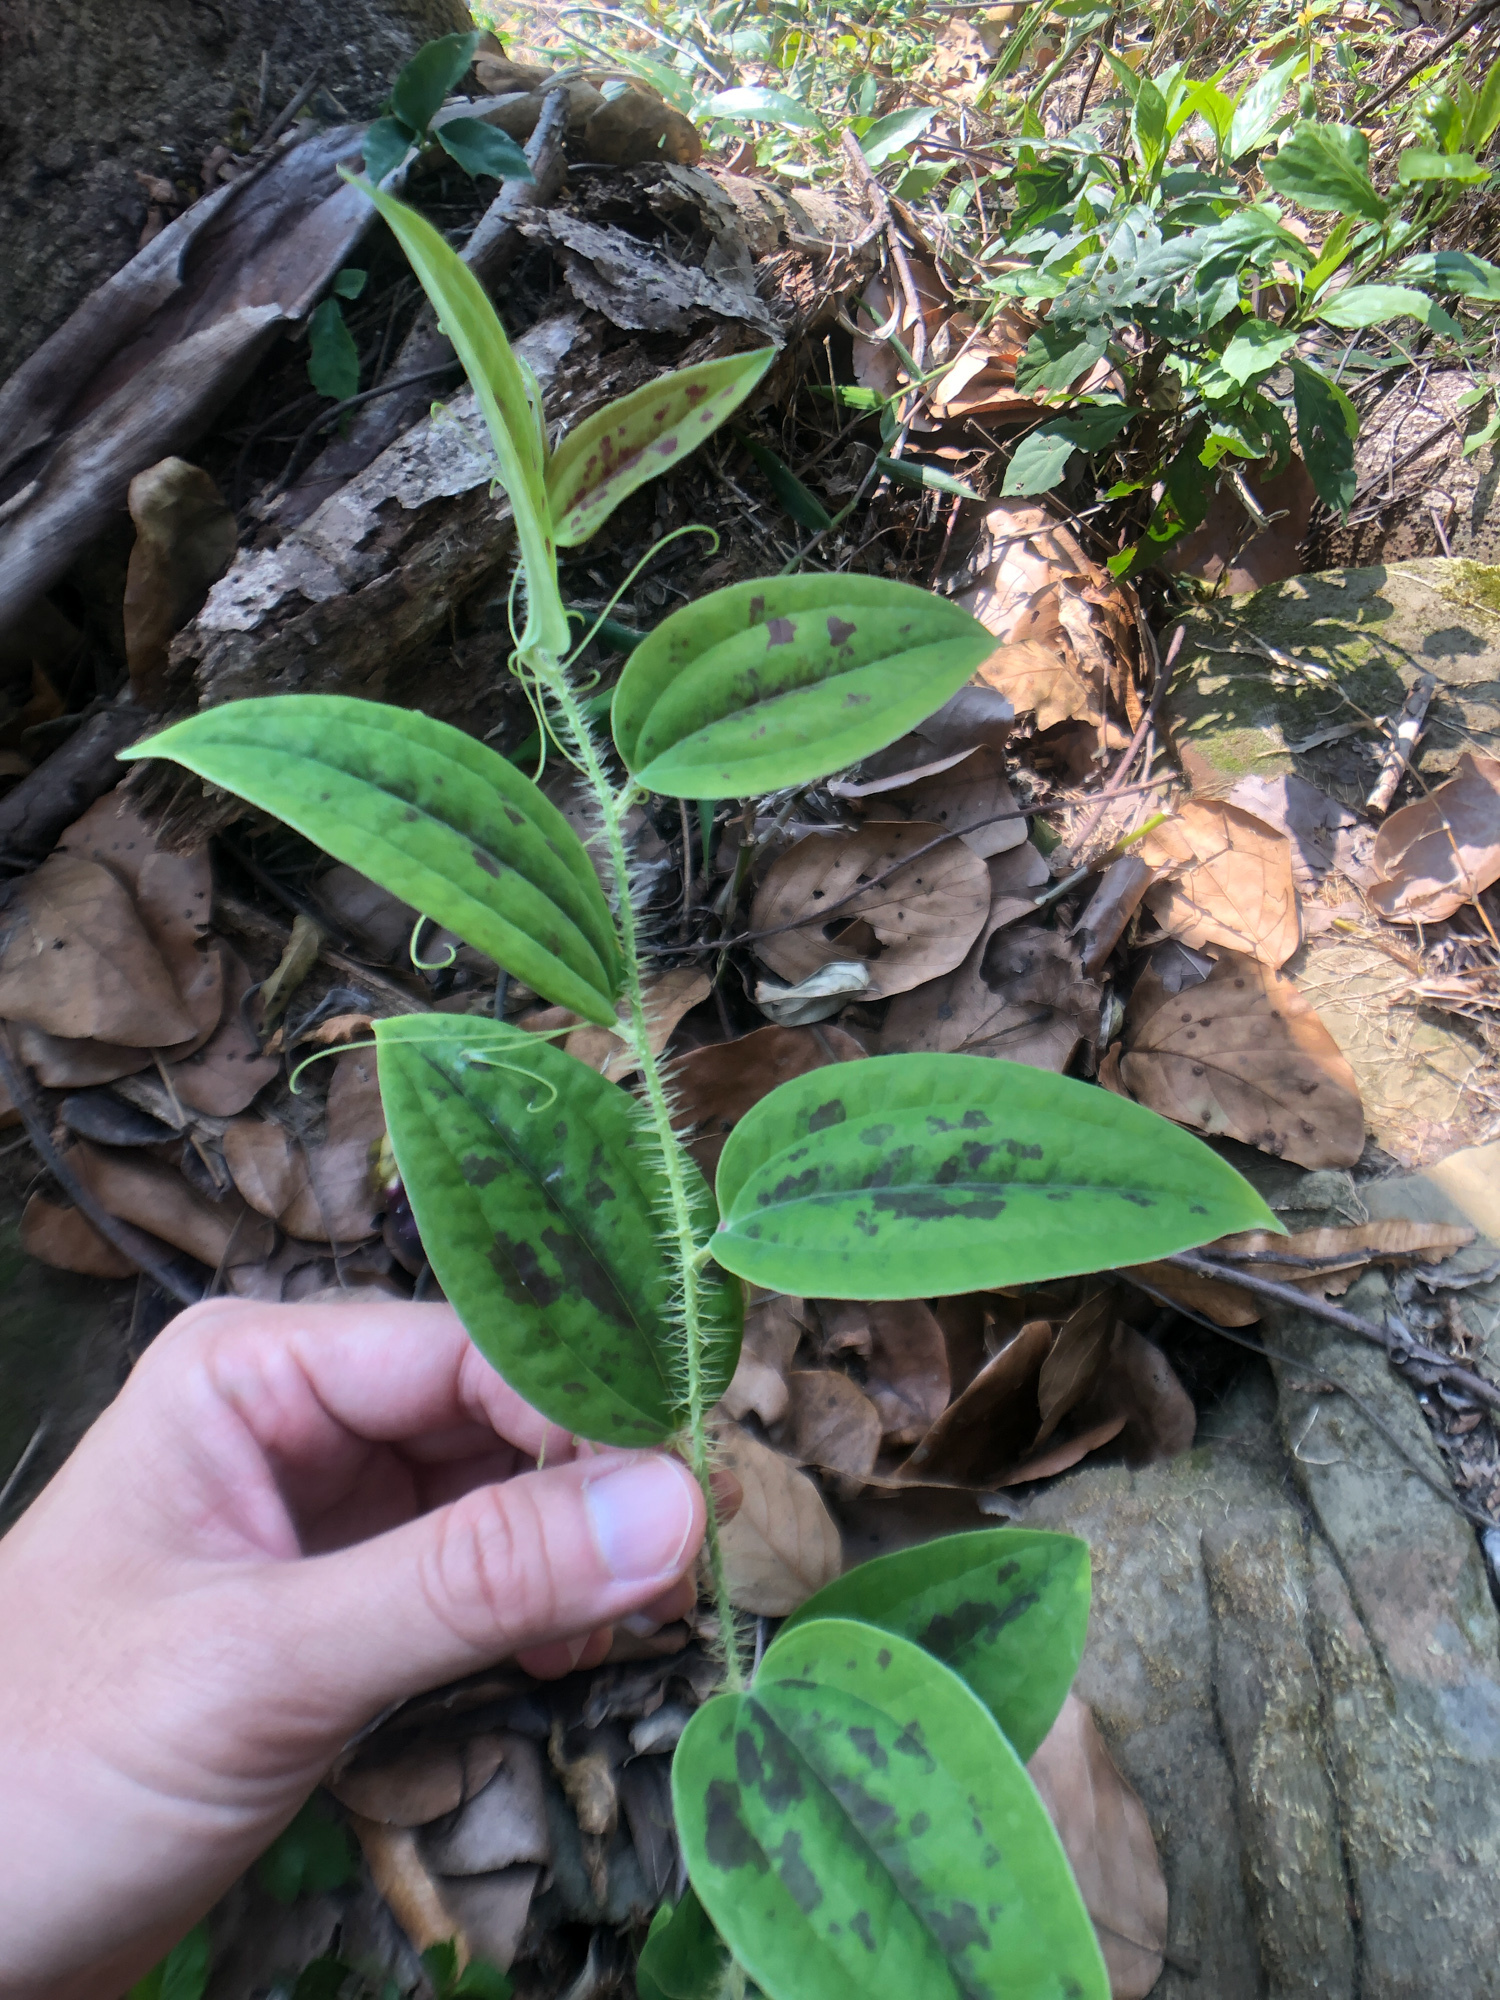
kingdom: Plantae
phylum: Tracheophyta
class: Liliopsida
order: Liliales
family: Smilacaceae
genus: Smilax
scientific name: Smilax horridiramula
